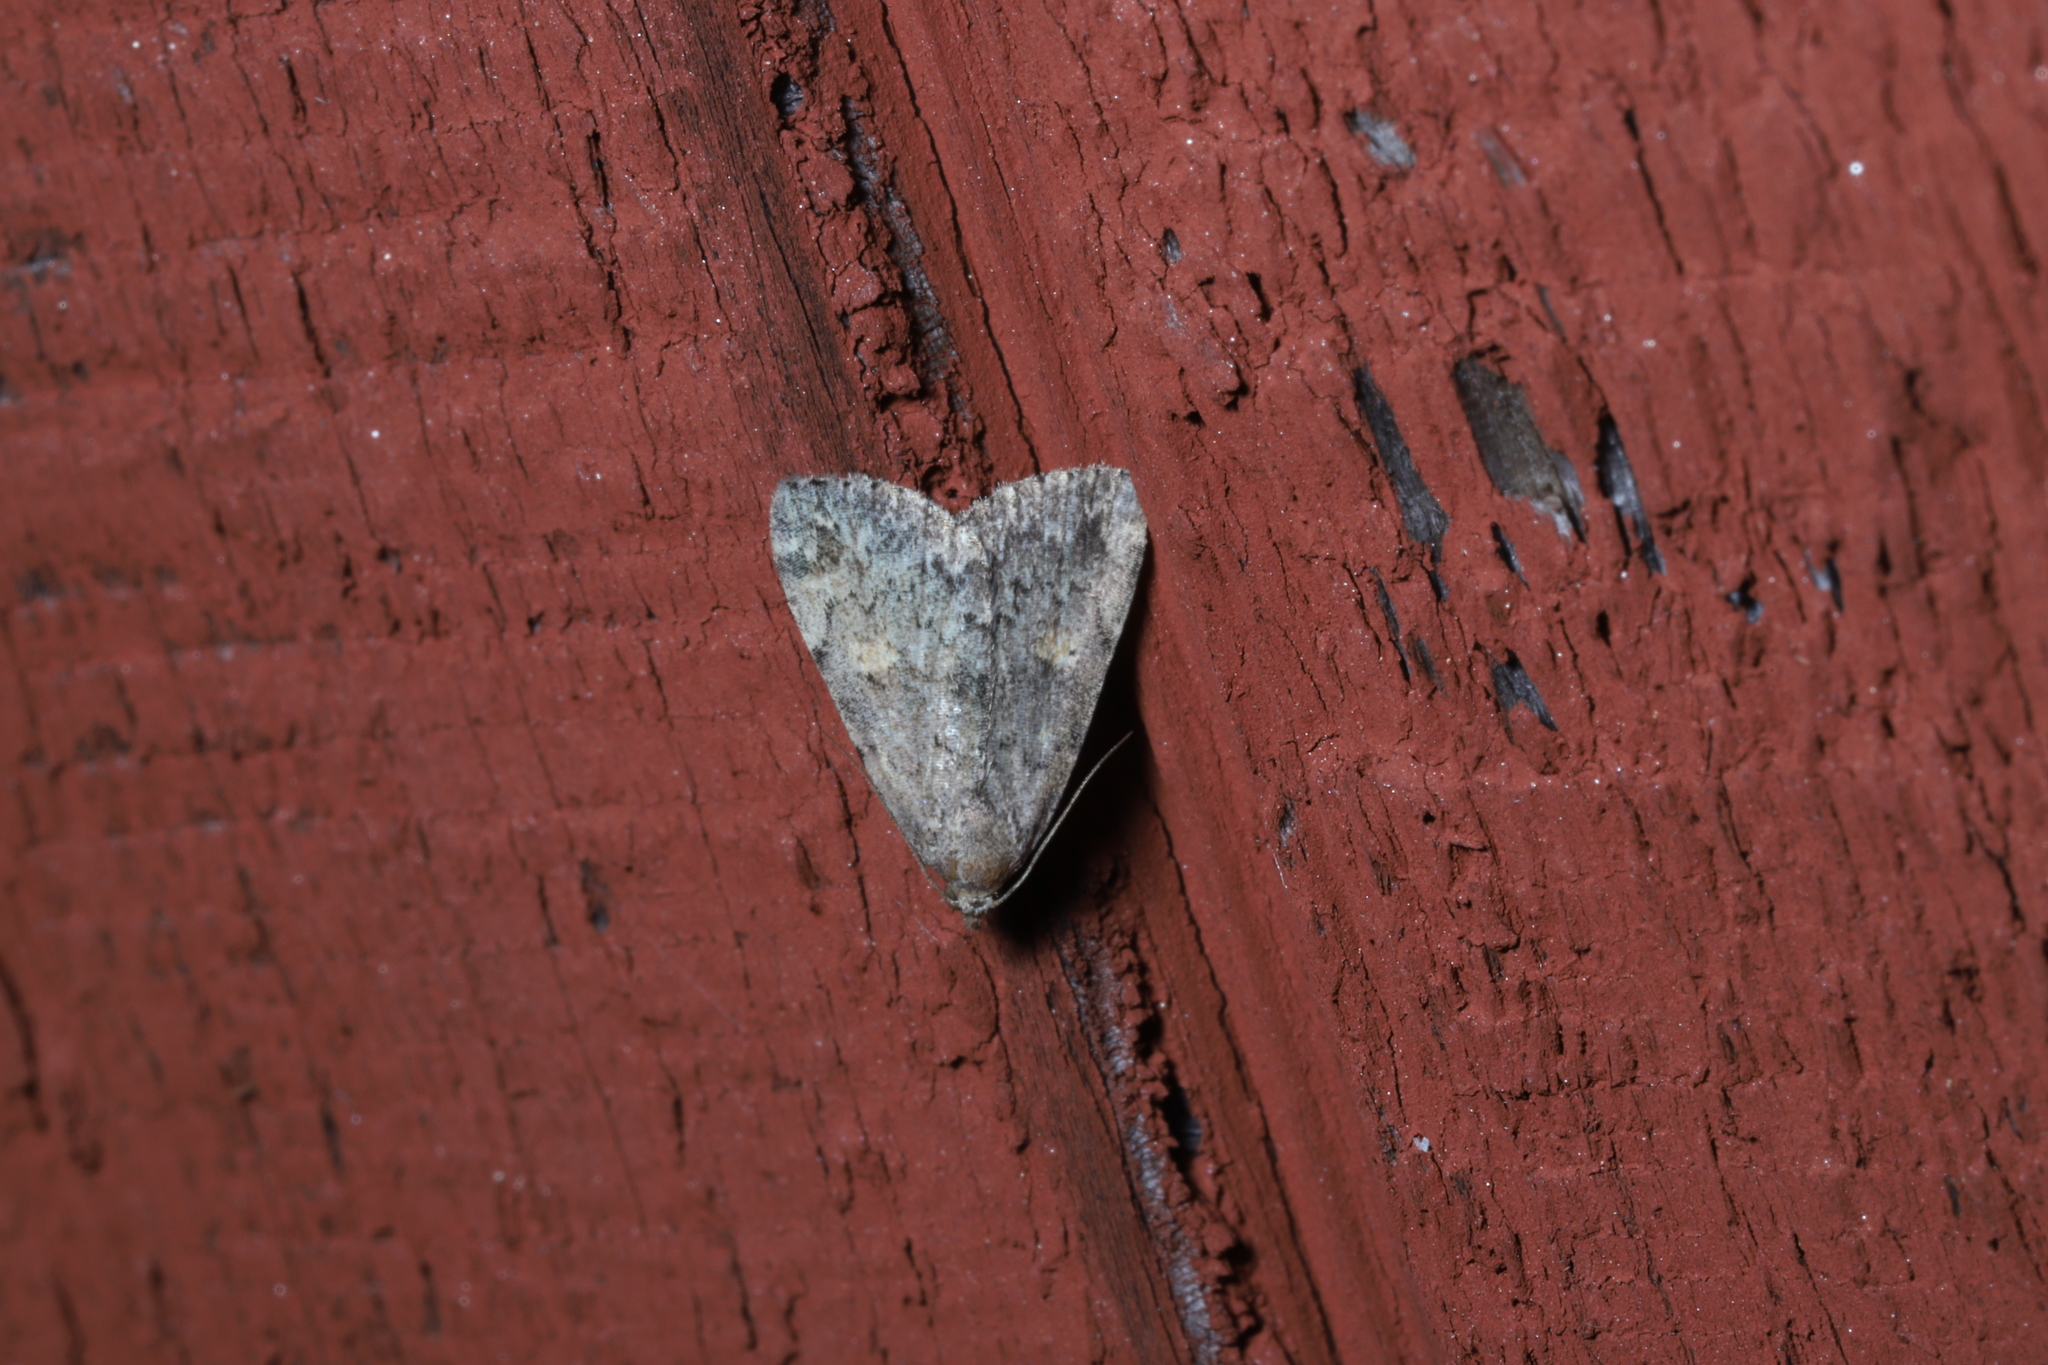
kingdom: Animalia
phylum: Arthropoda
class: Insecta
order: Lepidoptera
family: Erebidae
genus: Idia
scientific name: Idia aemula
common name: Common idia moth
